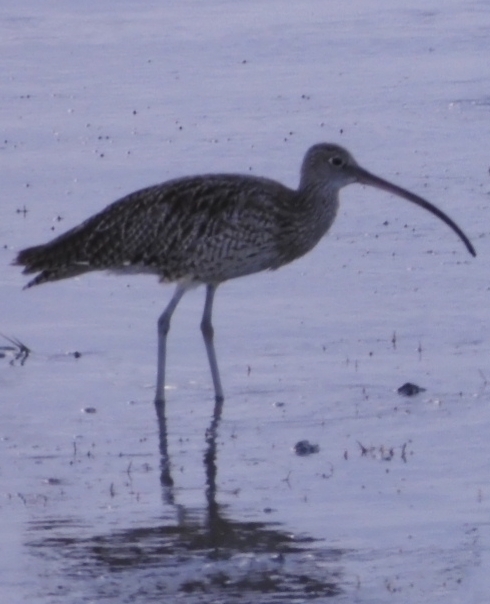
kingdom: Animalia
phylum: Chordata
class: Aves
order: Charadriiformes
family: Scolopacidae
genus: Numenius
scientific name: Numenius madagascariensis
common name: Far eastern curlew
